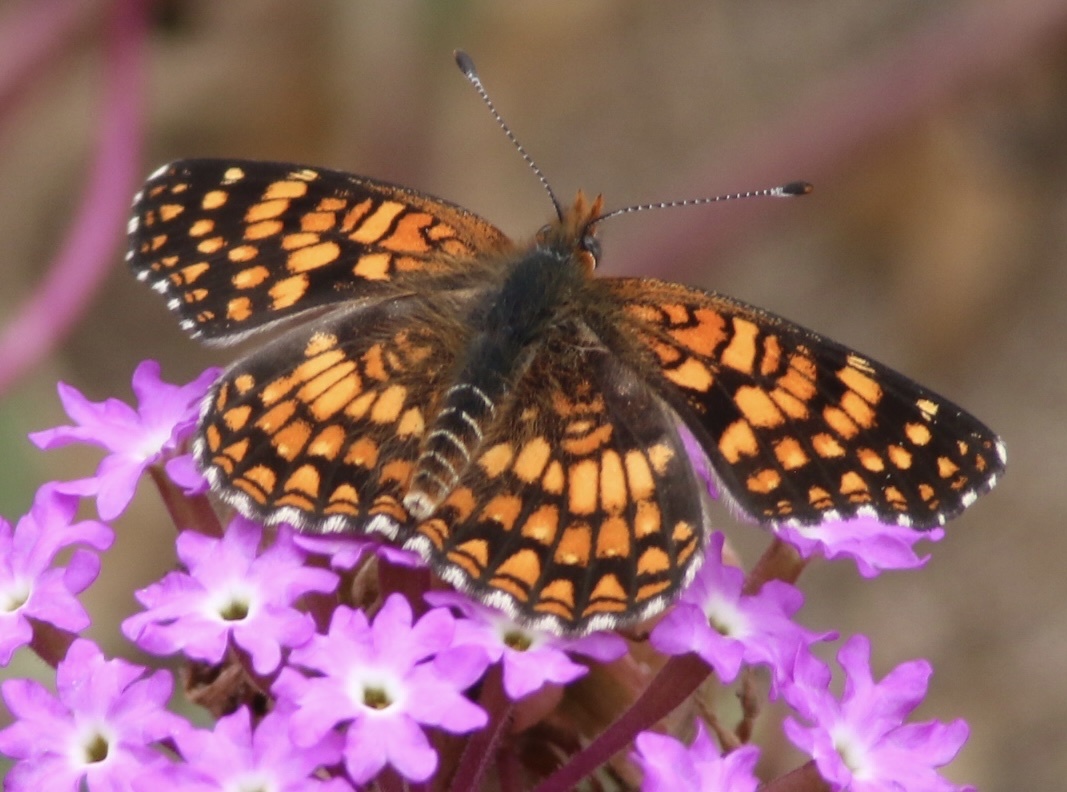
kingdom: Animalia
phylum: Arthropoda
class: Insecta
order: Lepidoptera
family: Nymphalidae
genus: Chlosyne
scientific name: Chlosyne gabbii
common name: Gabb's checkerspot
